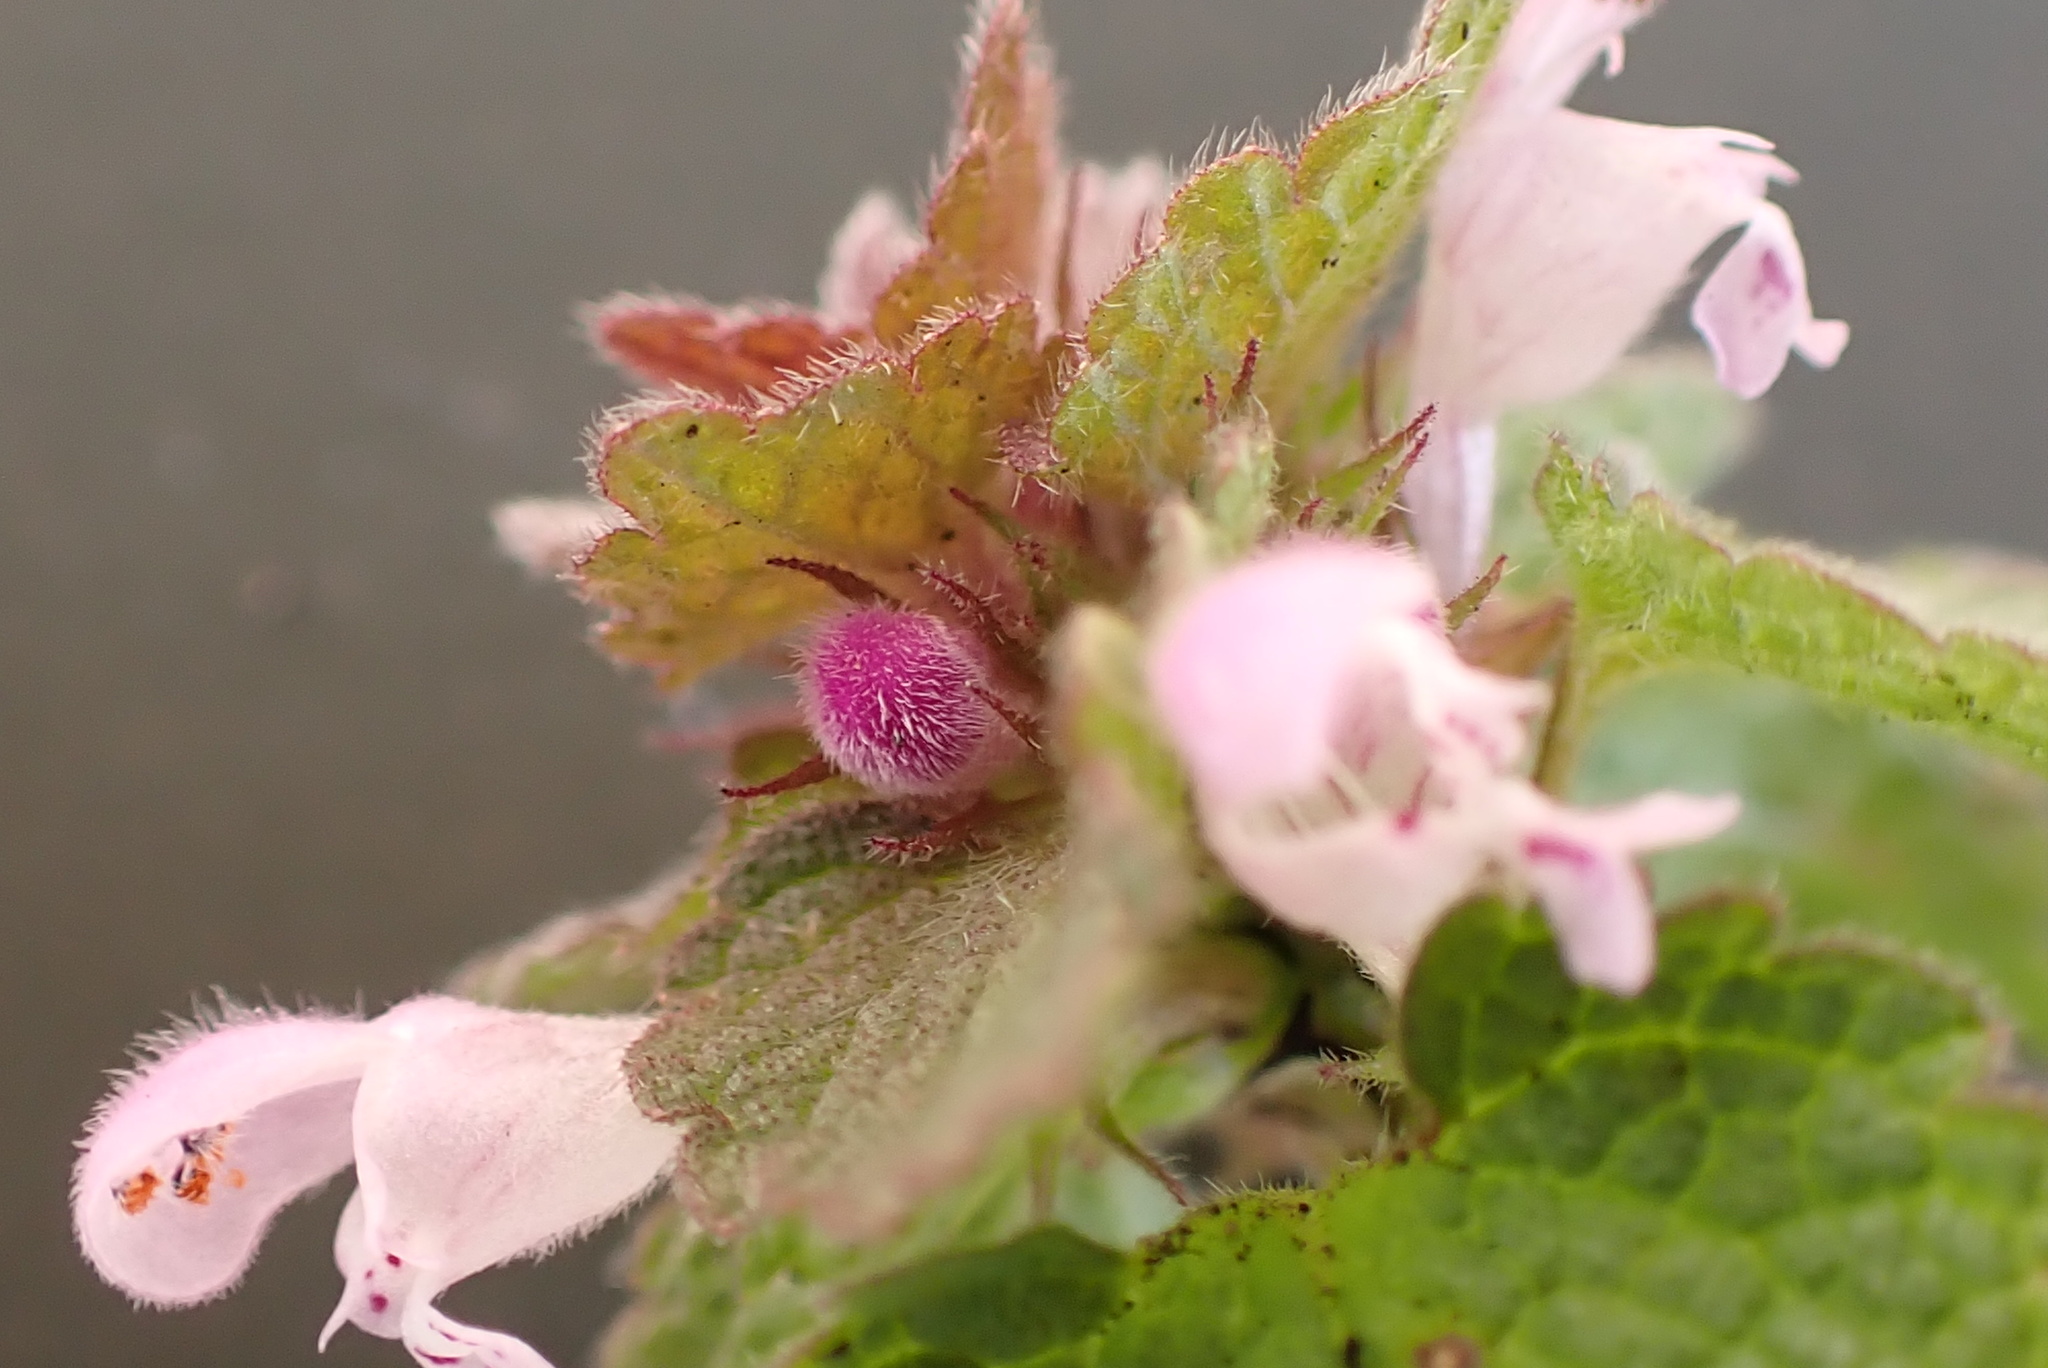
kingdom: Plantae
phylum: Tracheophyta
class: Magnoliopsida
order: Lamiales
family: Lamiaceae
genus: Lamium
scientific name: Lamium purpureum
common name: Red dead-nettle
